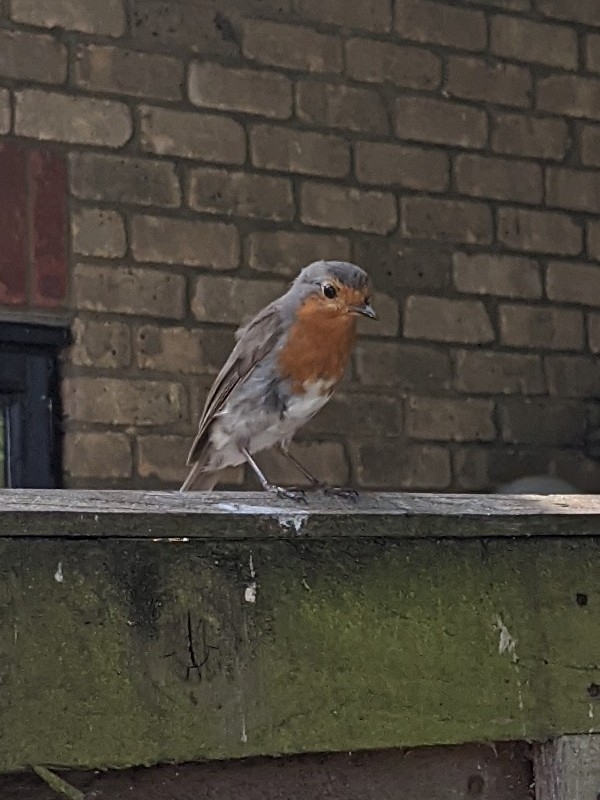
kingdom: Animalia
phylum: Chordata
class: Aves
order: Passeriformes
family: Muscicapidae
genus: Erithacus
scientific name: Erithacus rubecula
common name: European robin
